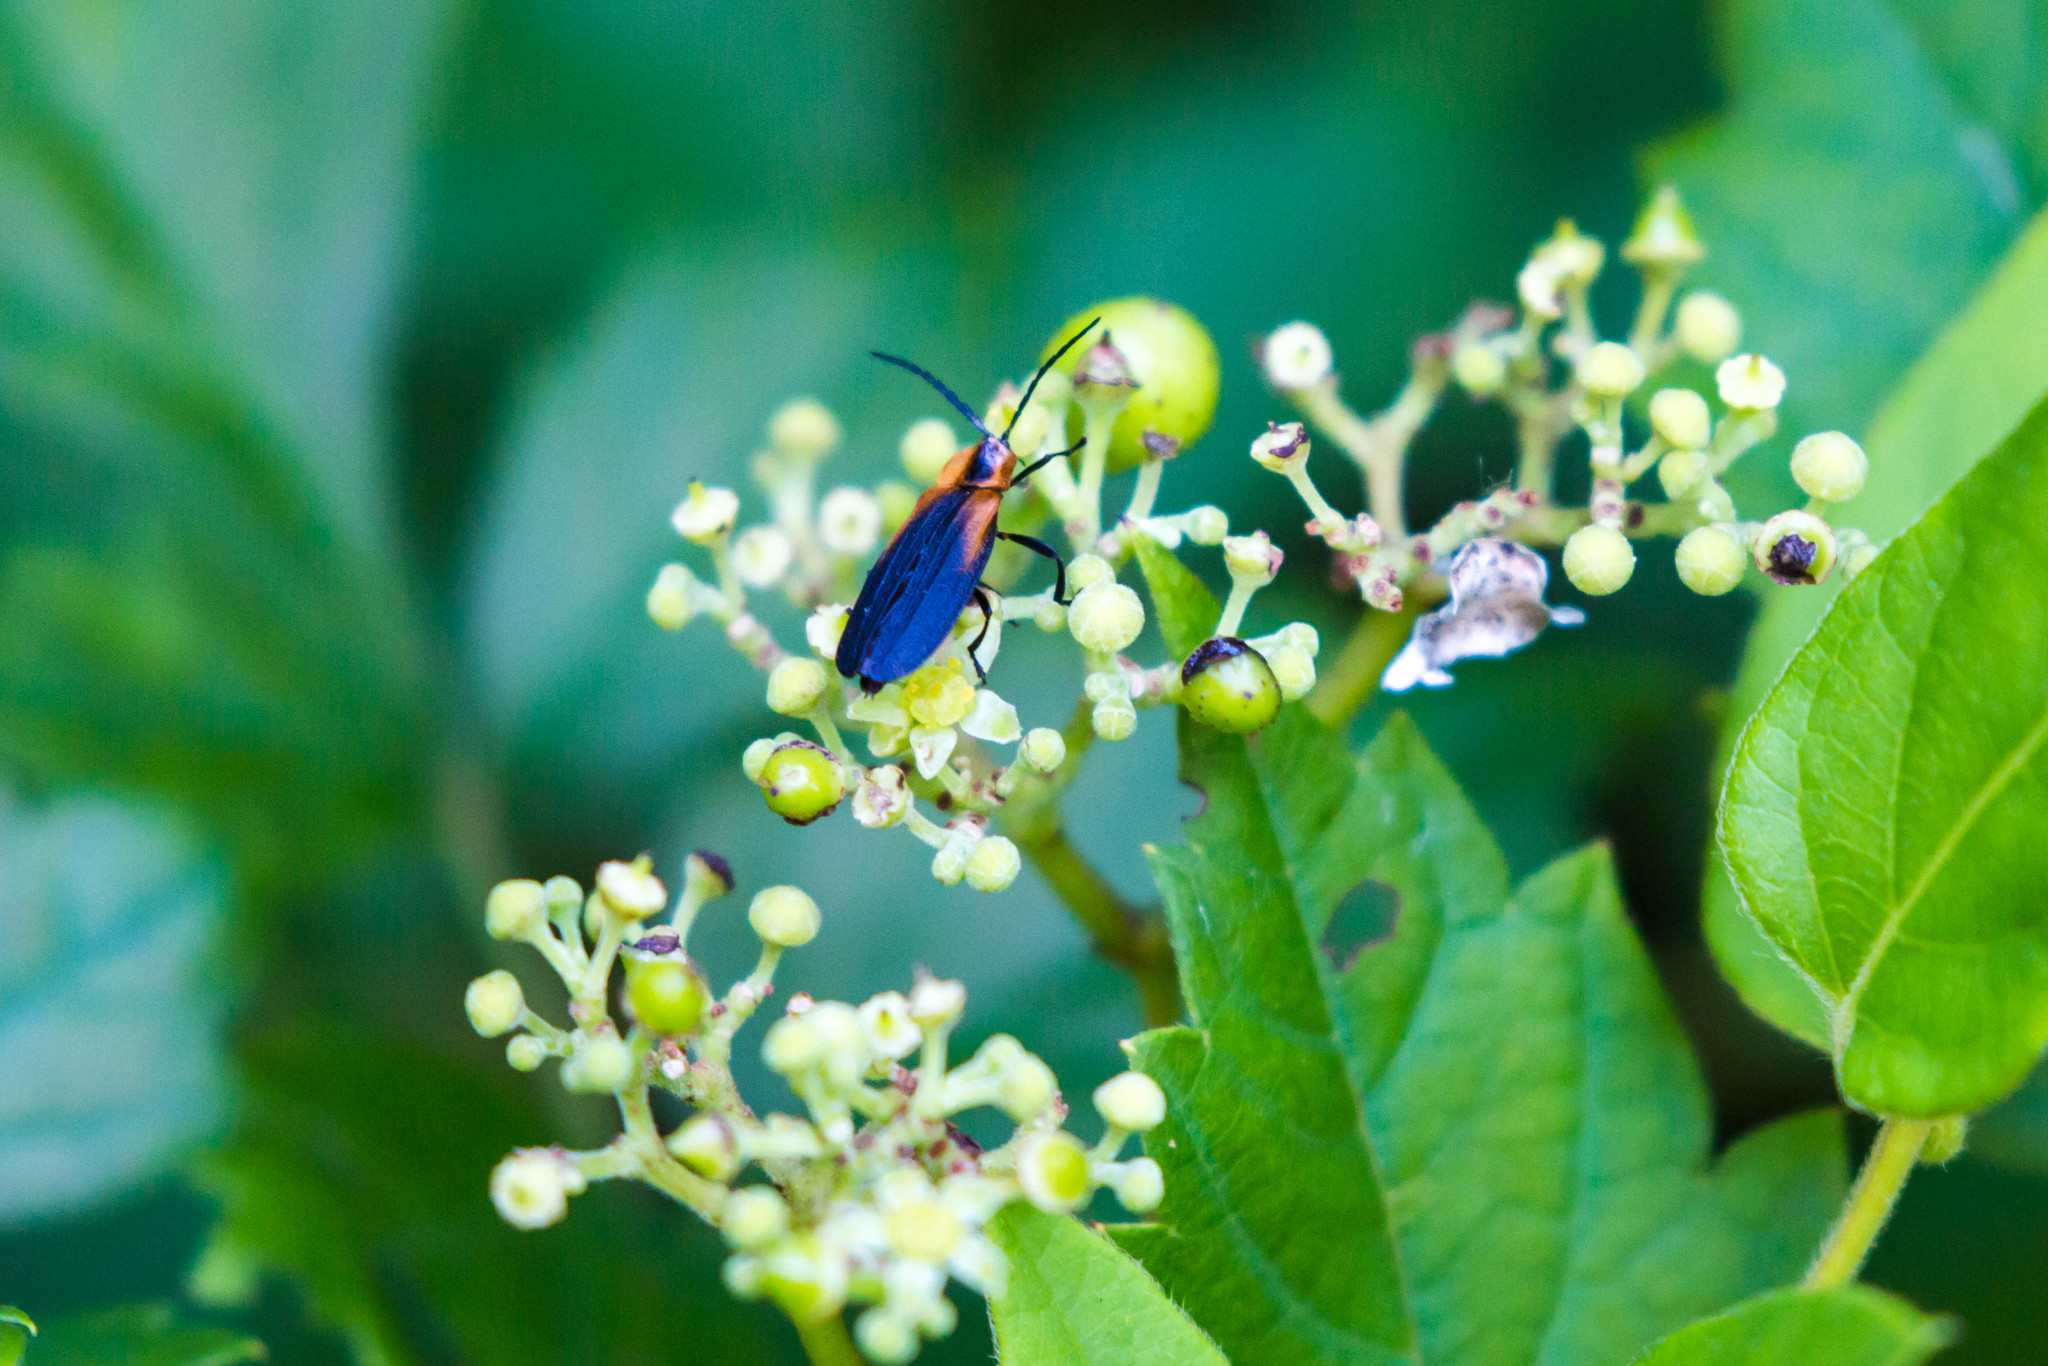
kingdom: Animalia
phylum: Arthropoda
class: Insecta
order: Coleoptera
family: Lycidae
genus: Lyconotus
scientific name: Lyconotus lateralis
